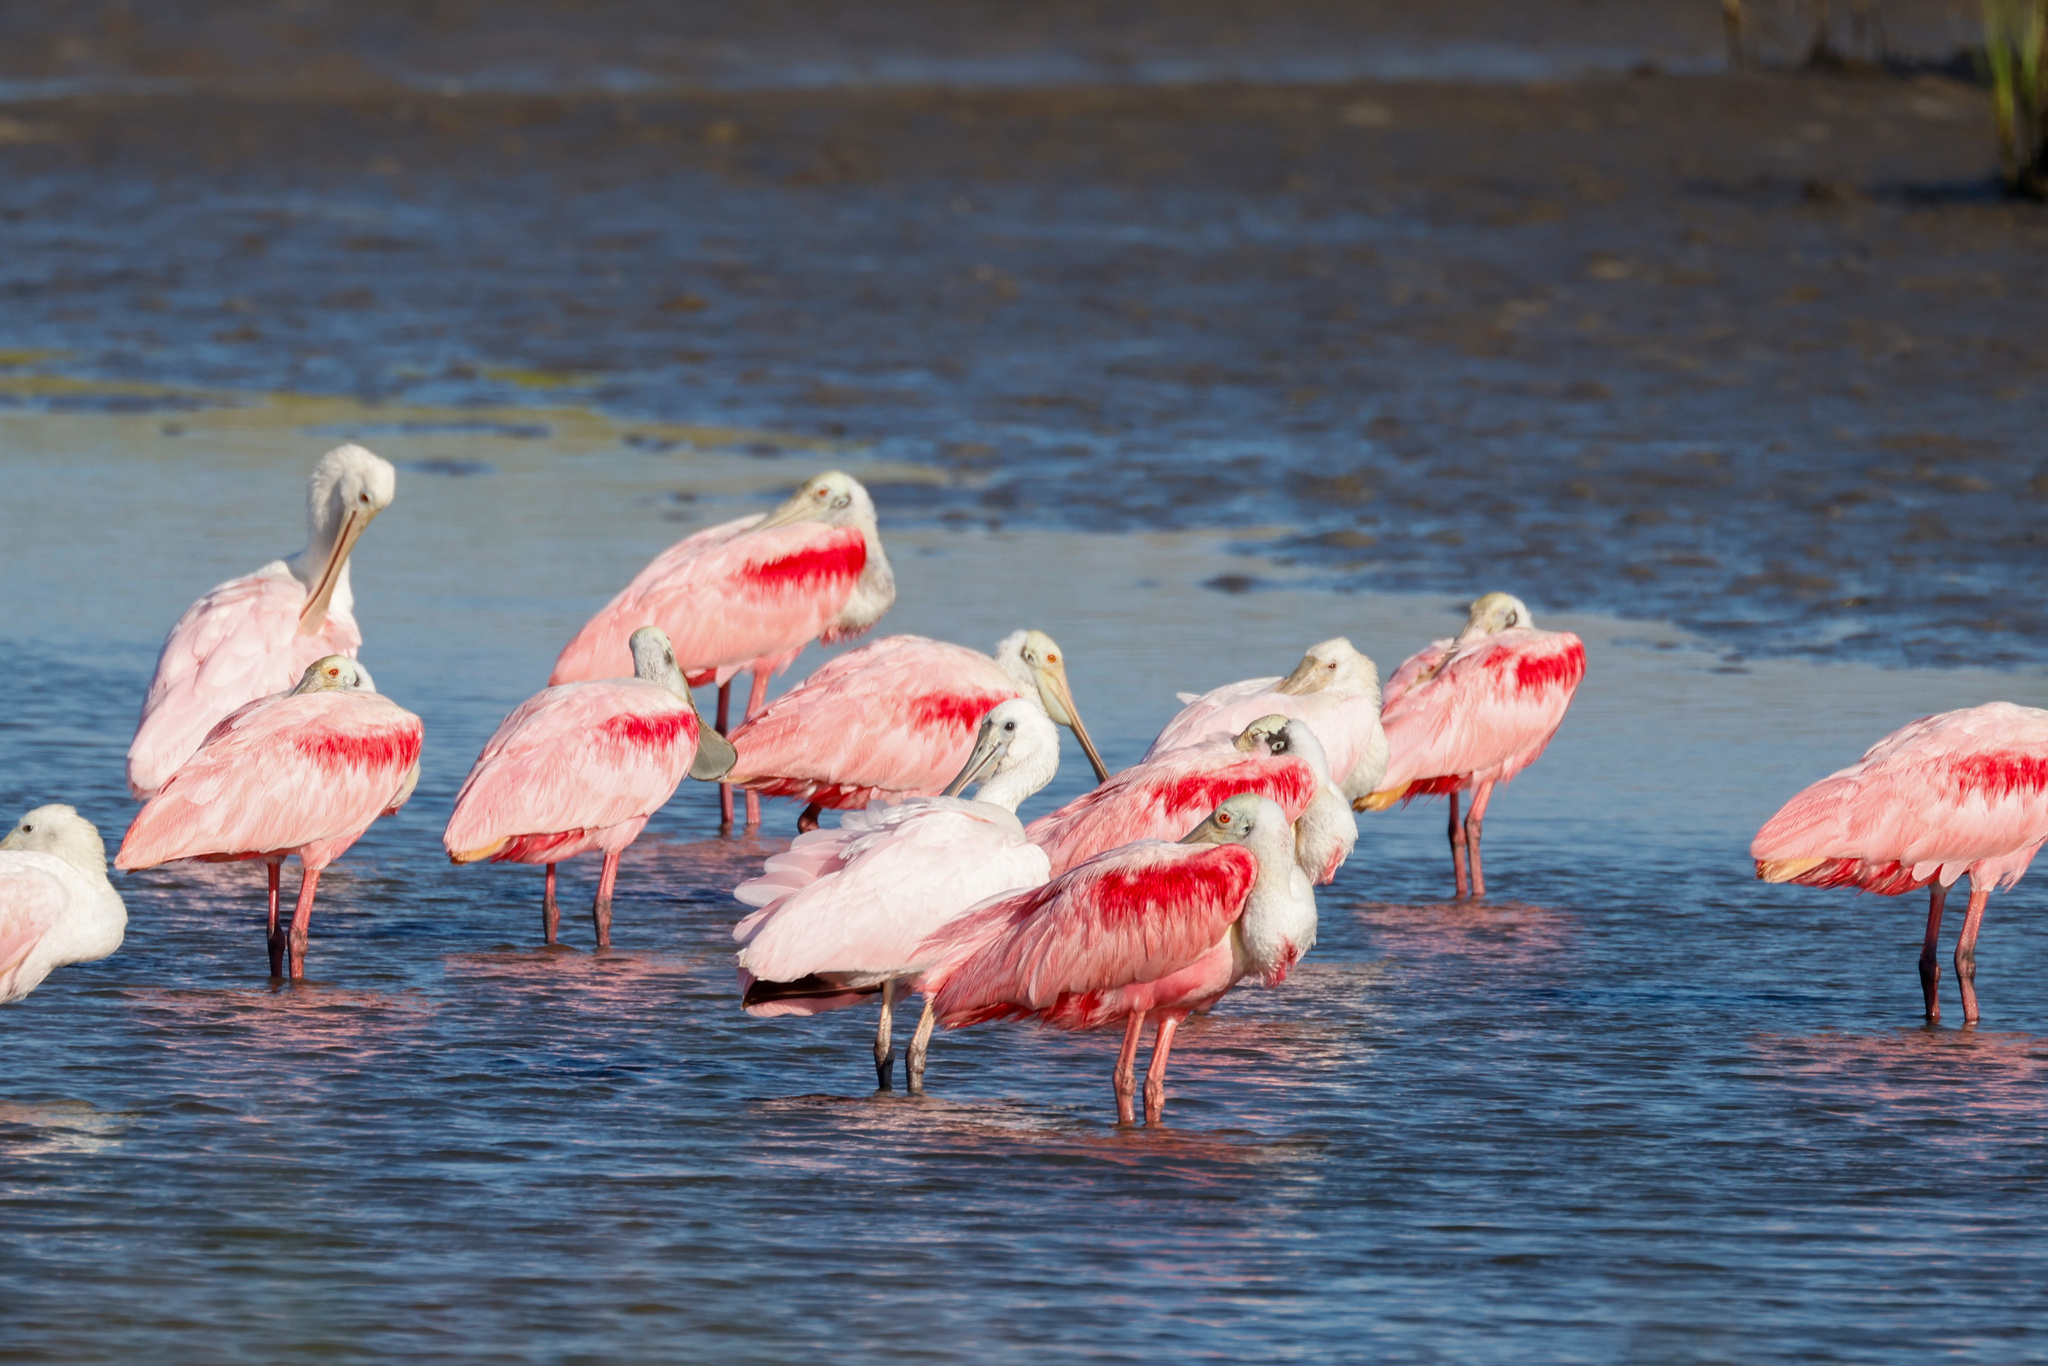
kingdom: Animalia
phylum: Chordata
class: Aves
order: Pelecaniformes
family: Threskiornithidae
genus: Platalea
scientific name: Platalea ajaja
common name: Roseate spoonbill
